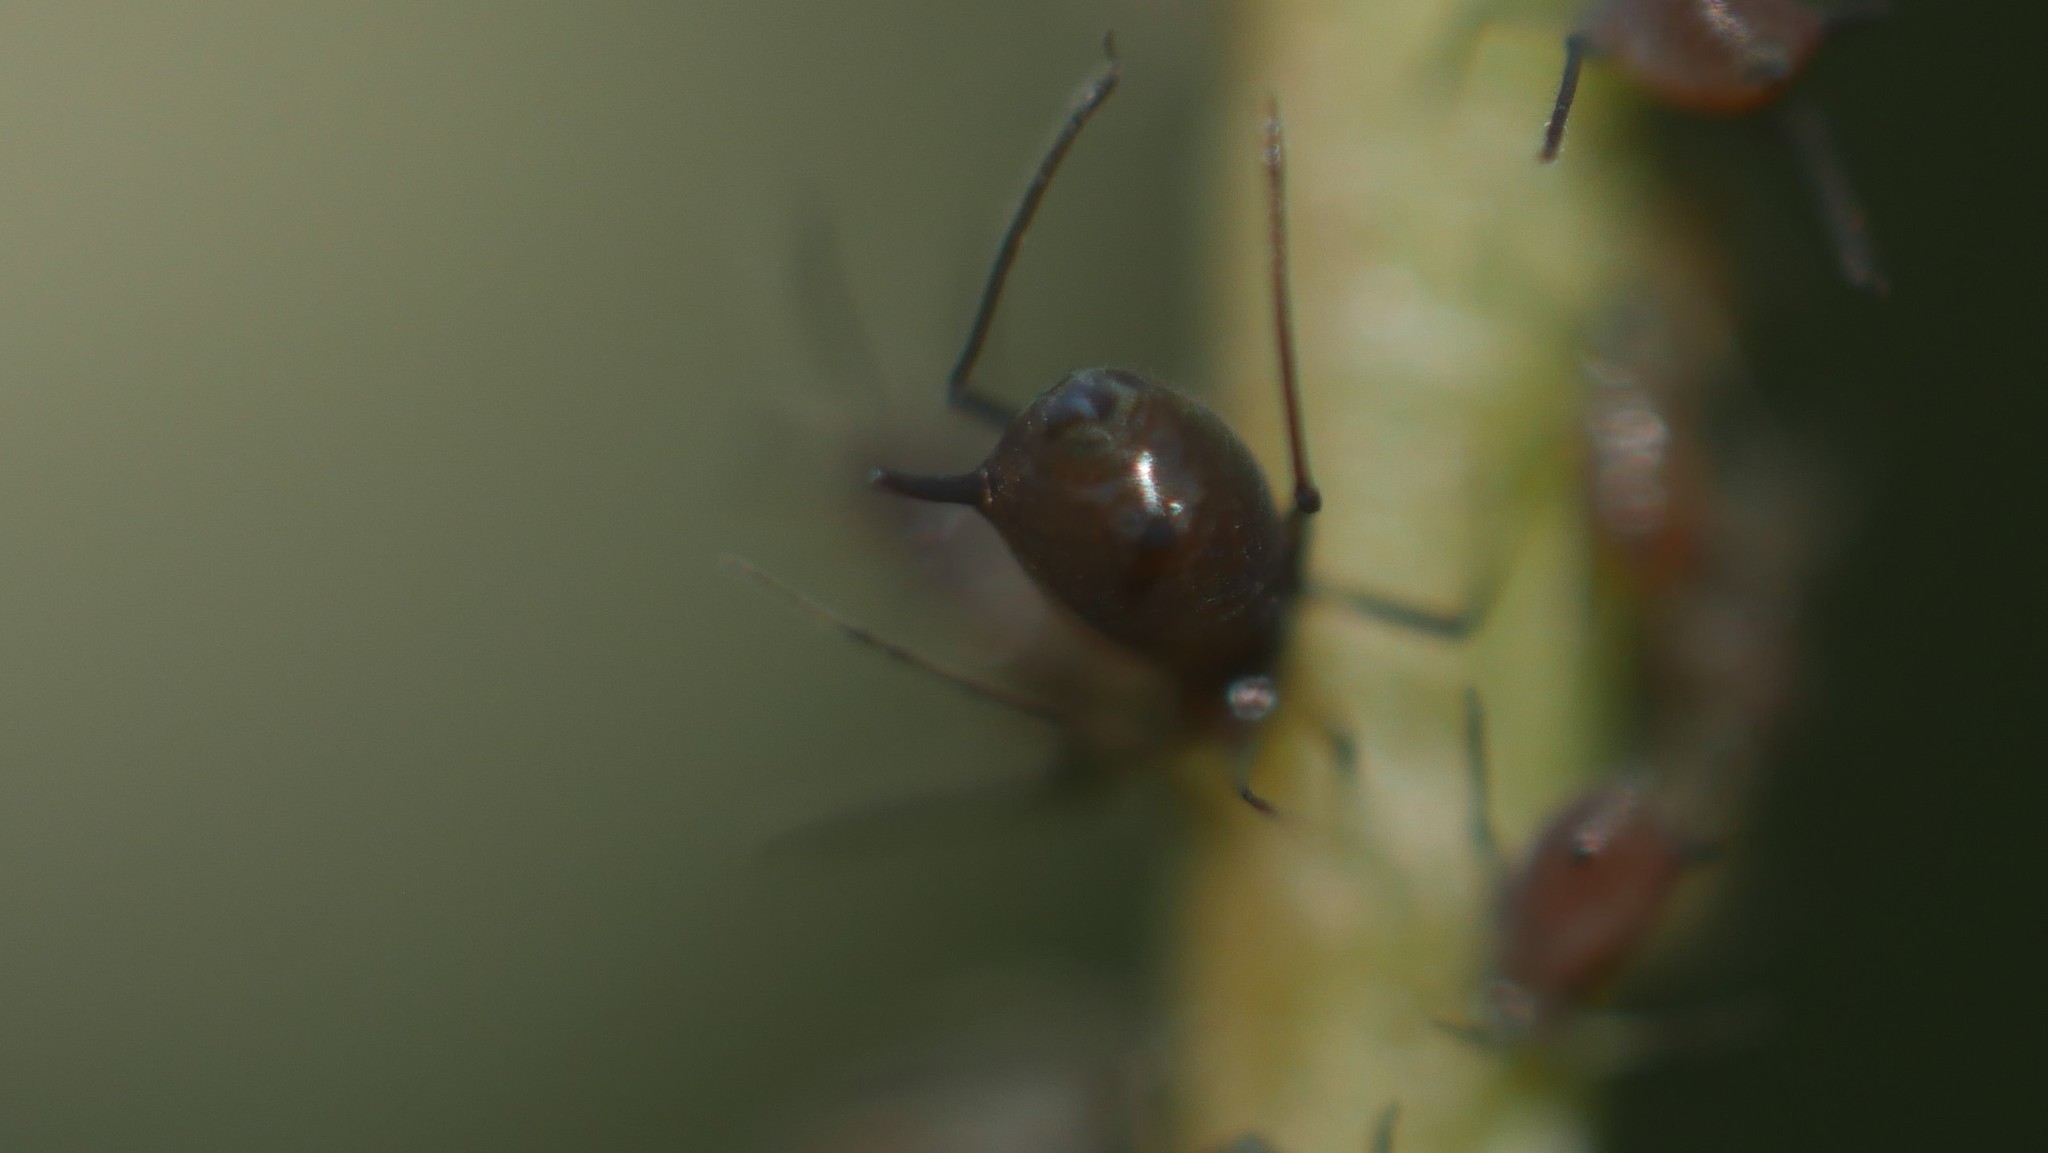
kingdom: Animalia
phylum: Arthropoda
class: Insecta
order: Hemiptera
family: Aphididae
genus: Aphis
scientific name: Aphis illinoisensis
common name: Grapevine aphid
